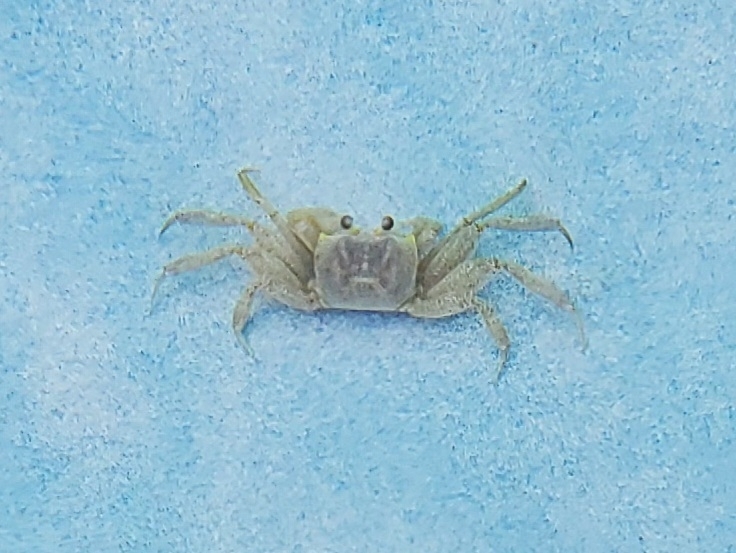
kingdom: Animalia
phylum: Arthropoda
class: Malacostraca
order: Decapoda
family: Ocypodidae
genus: Ocypode
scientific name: Ocypode quadrata
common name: Ghost crab
